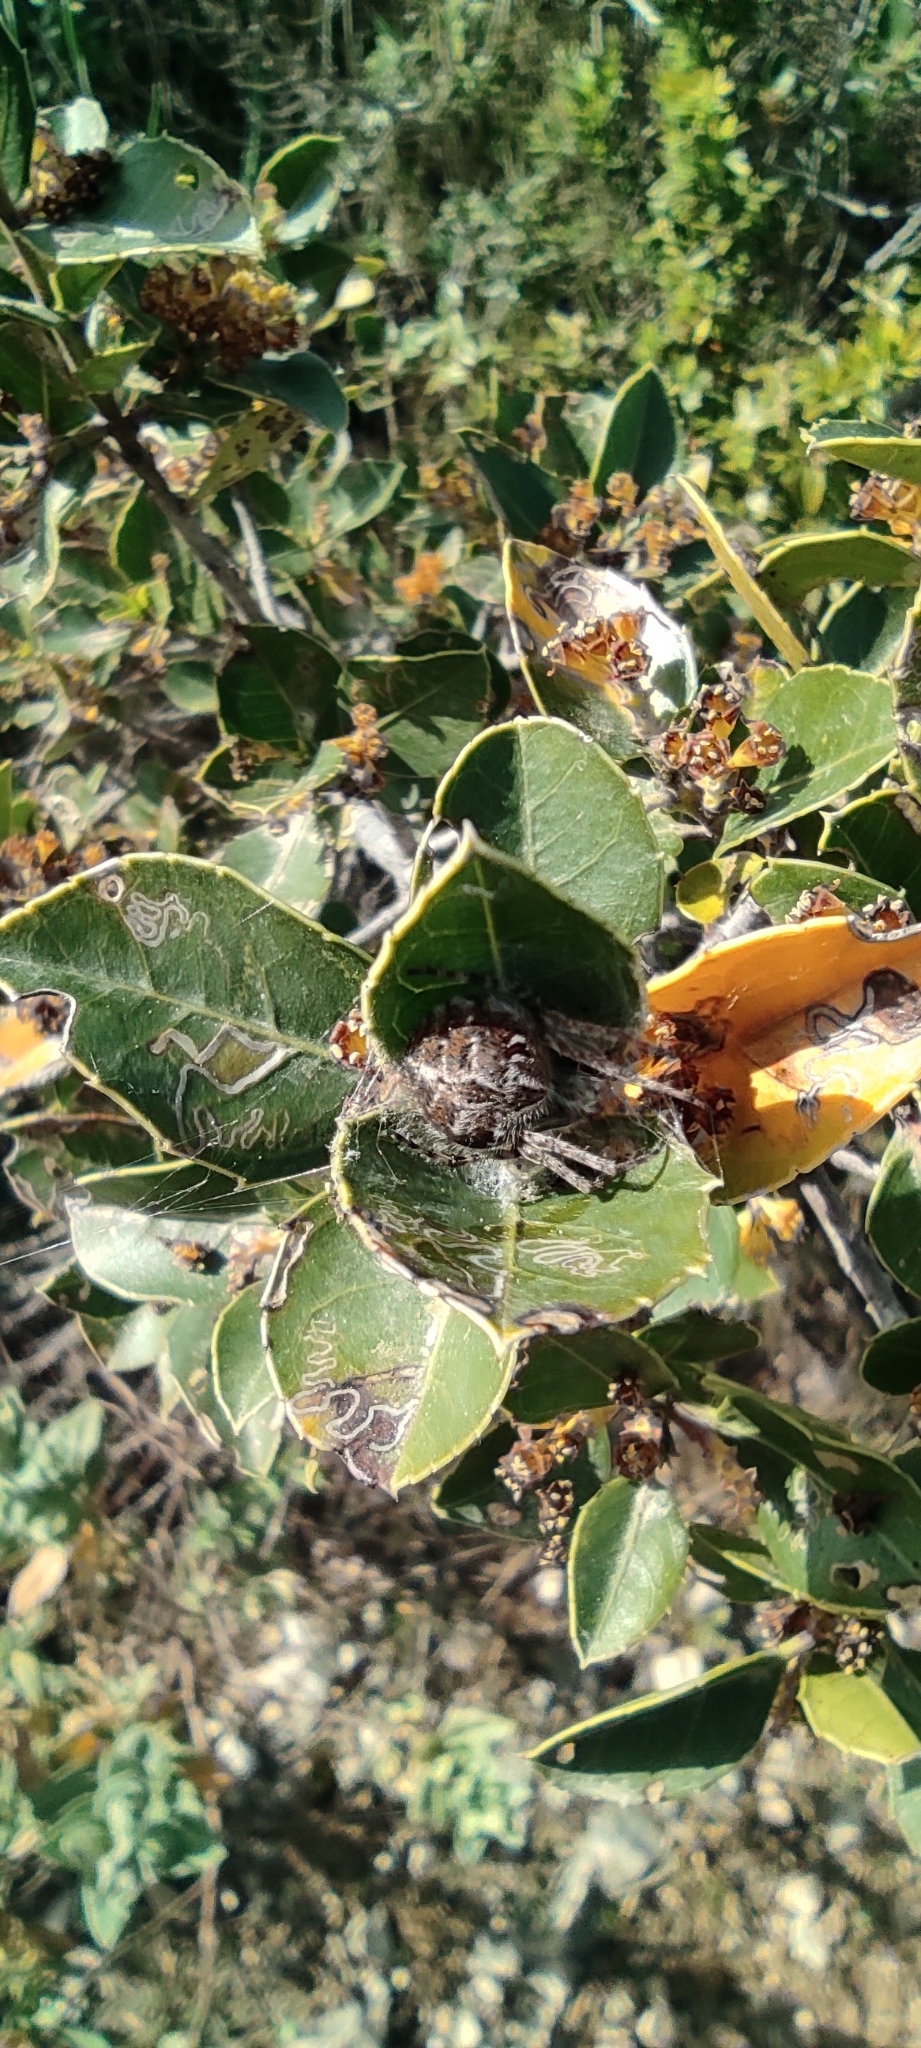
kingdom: Animalia
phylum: Arthropoda
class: Arachnida
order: Araneae
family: Araneidae
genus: Agalenatea
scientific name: Agalenatea redii
